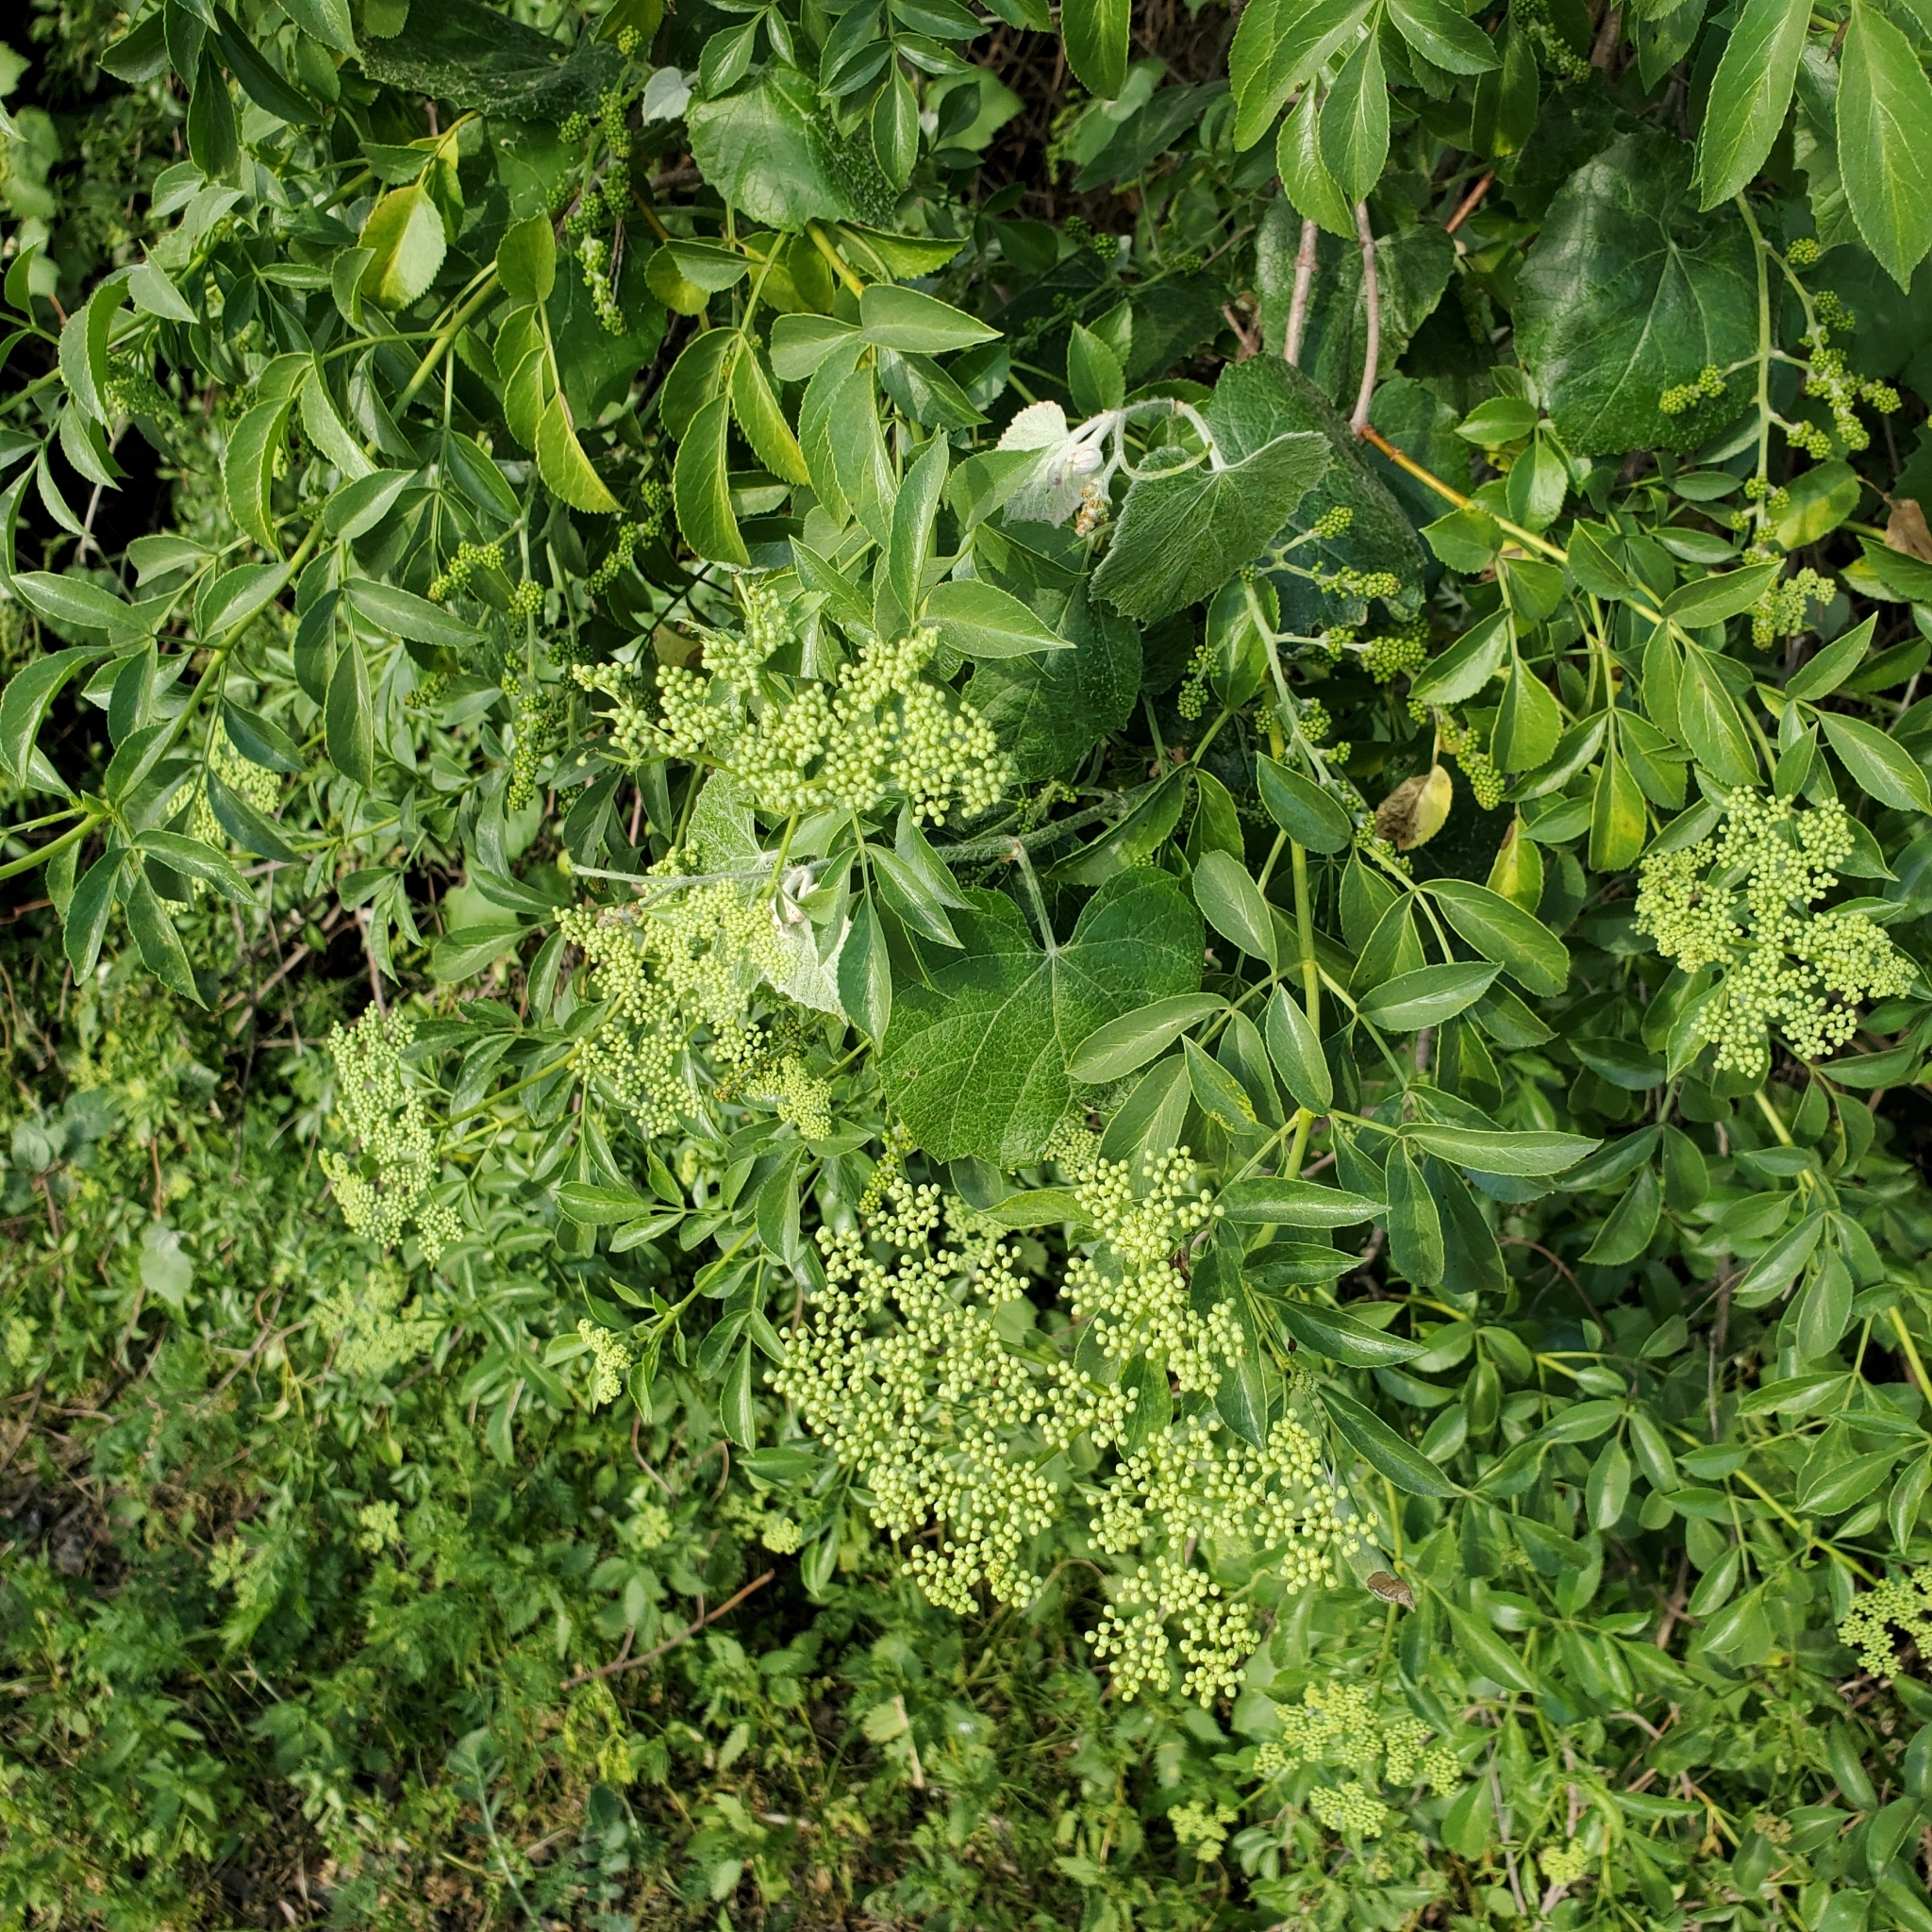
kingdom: Plantae
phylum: Tracheophyta
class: Magnoliopsida
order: Dipsacales
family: Viburnaceae
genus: Sambucus
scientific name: Sambucus cerulea
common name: Blue elder
